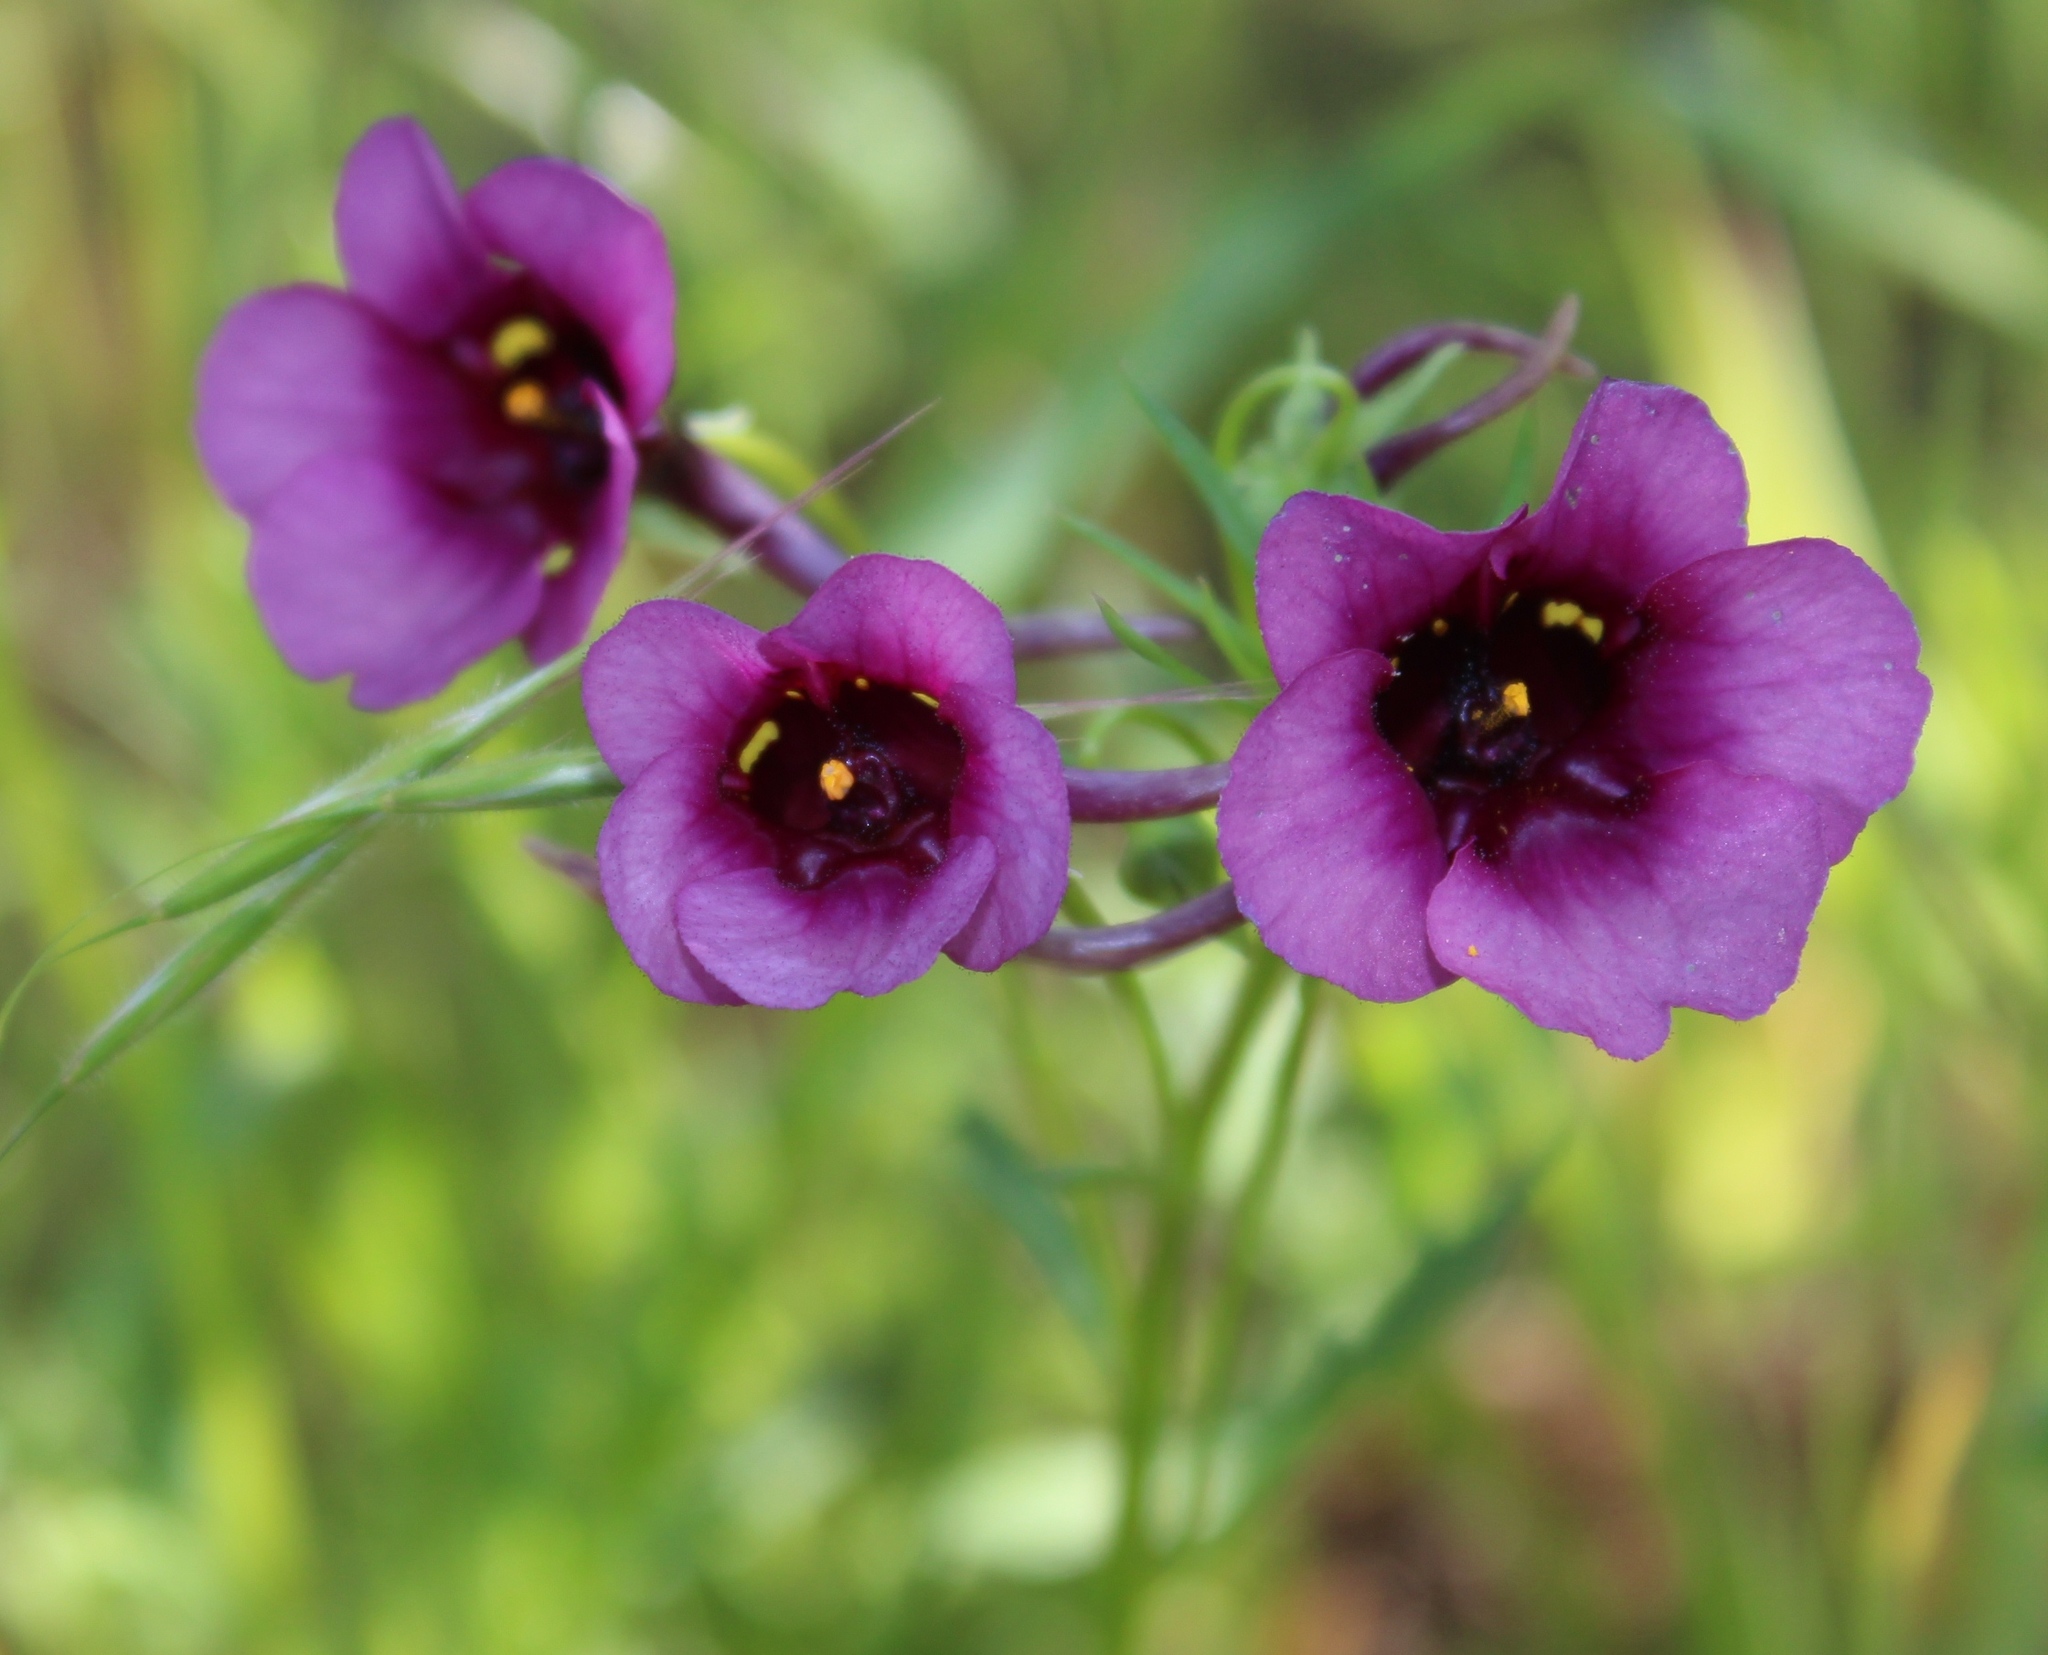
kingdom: Plantae
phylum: Tracheophyta
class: Magnoliopsida
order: Lamiales
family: Scrophulariaceae
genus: Diascia
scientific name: Diascia namaquensis
